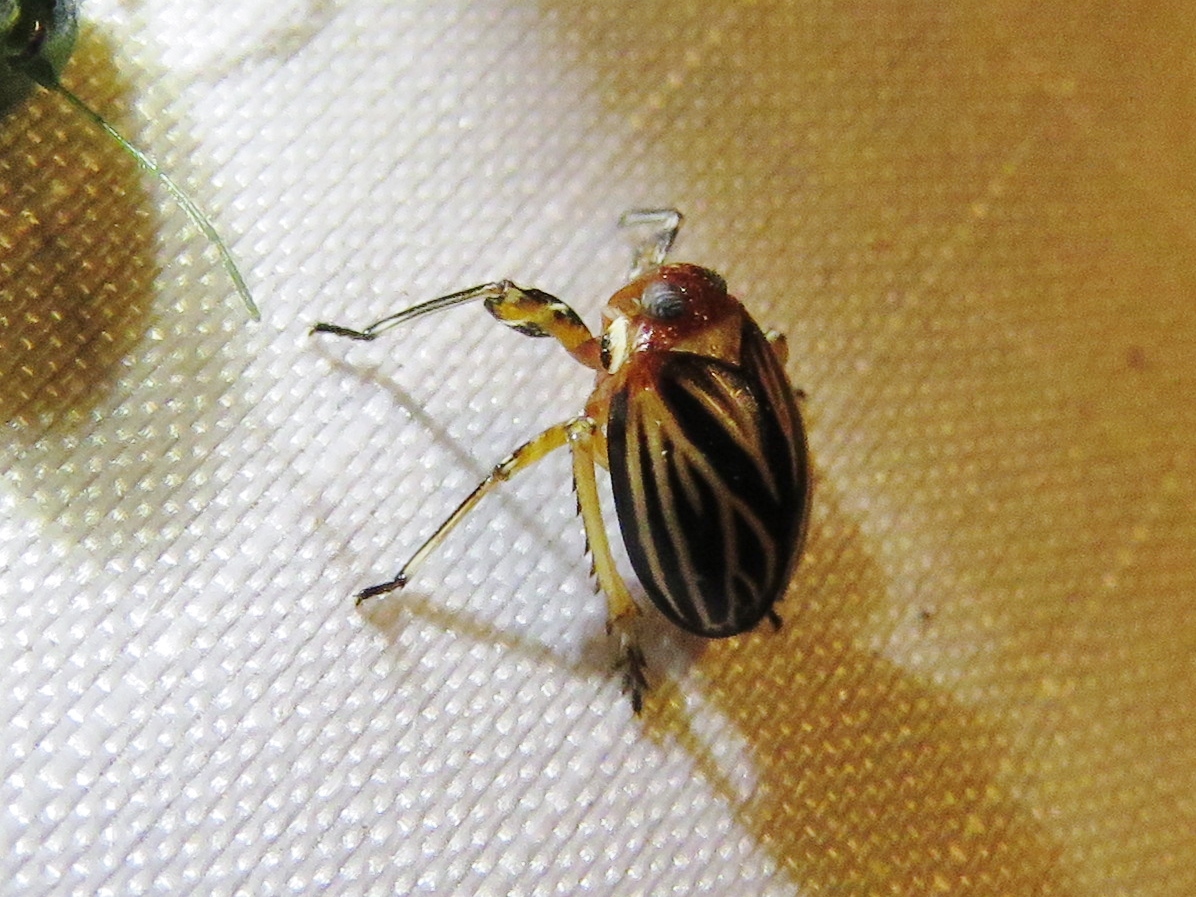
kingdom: Animalia
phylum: Arthropoda
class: Insecta
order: Hemiptera
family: Achilidae
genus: Isodaemon
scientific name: Isodaemon orontes
